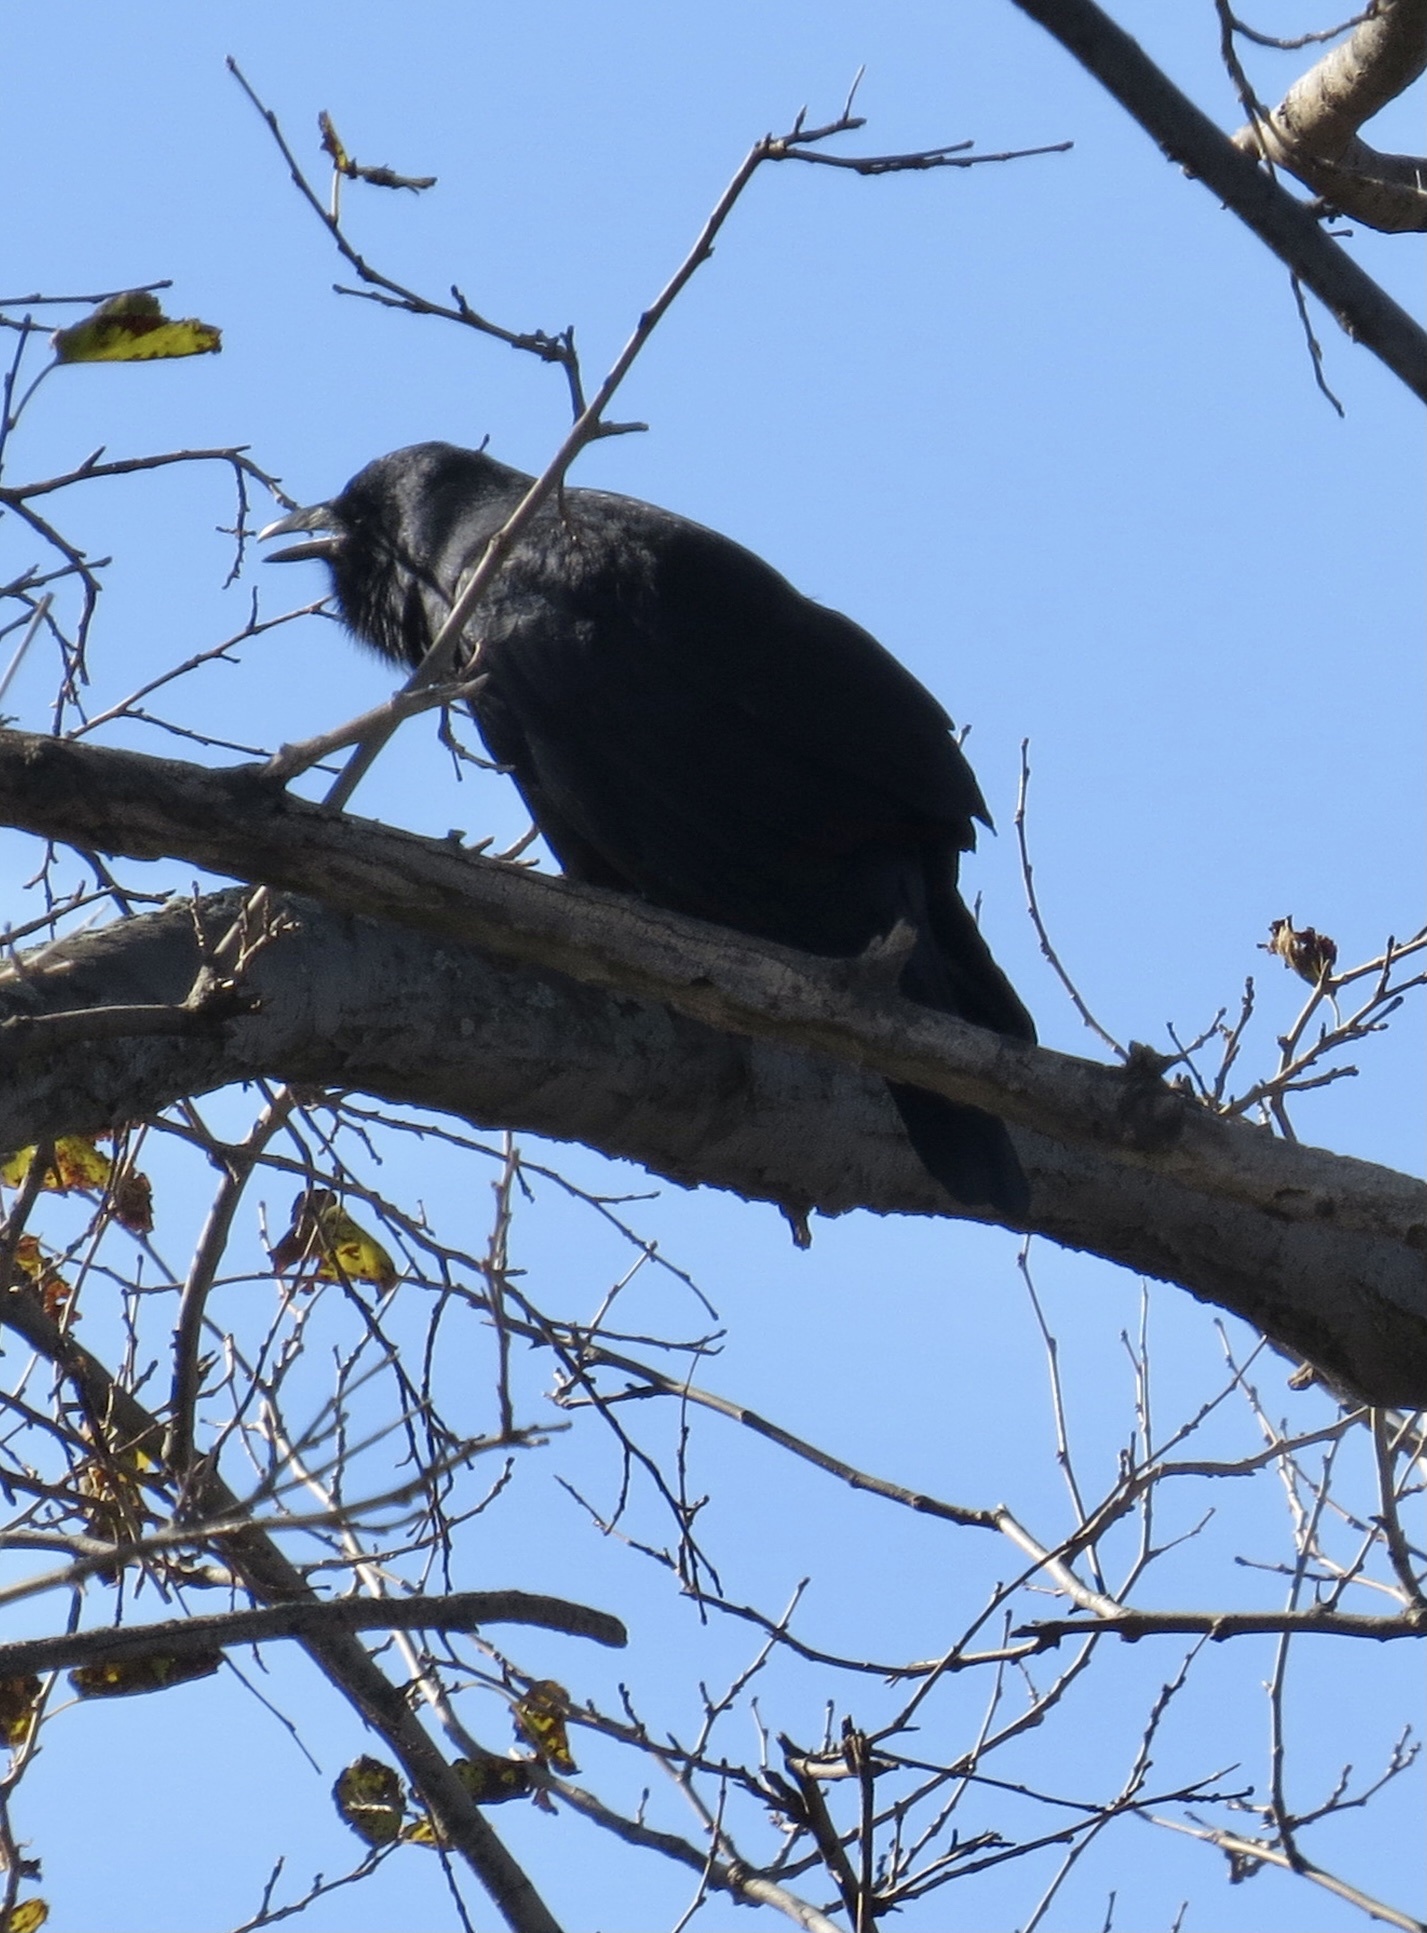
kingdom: Animalia
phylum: Chordata
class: Aves
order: Passeriformes
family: Corvidae
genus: Corvus
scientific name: Corvus ossifragus
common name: Fish crow
